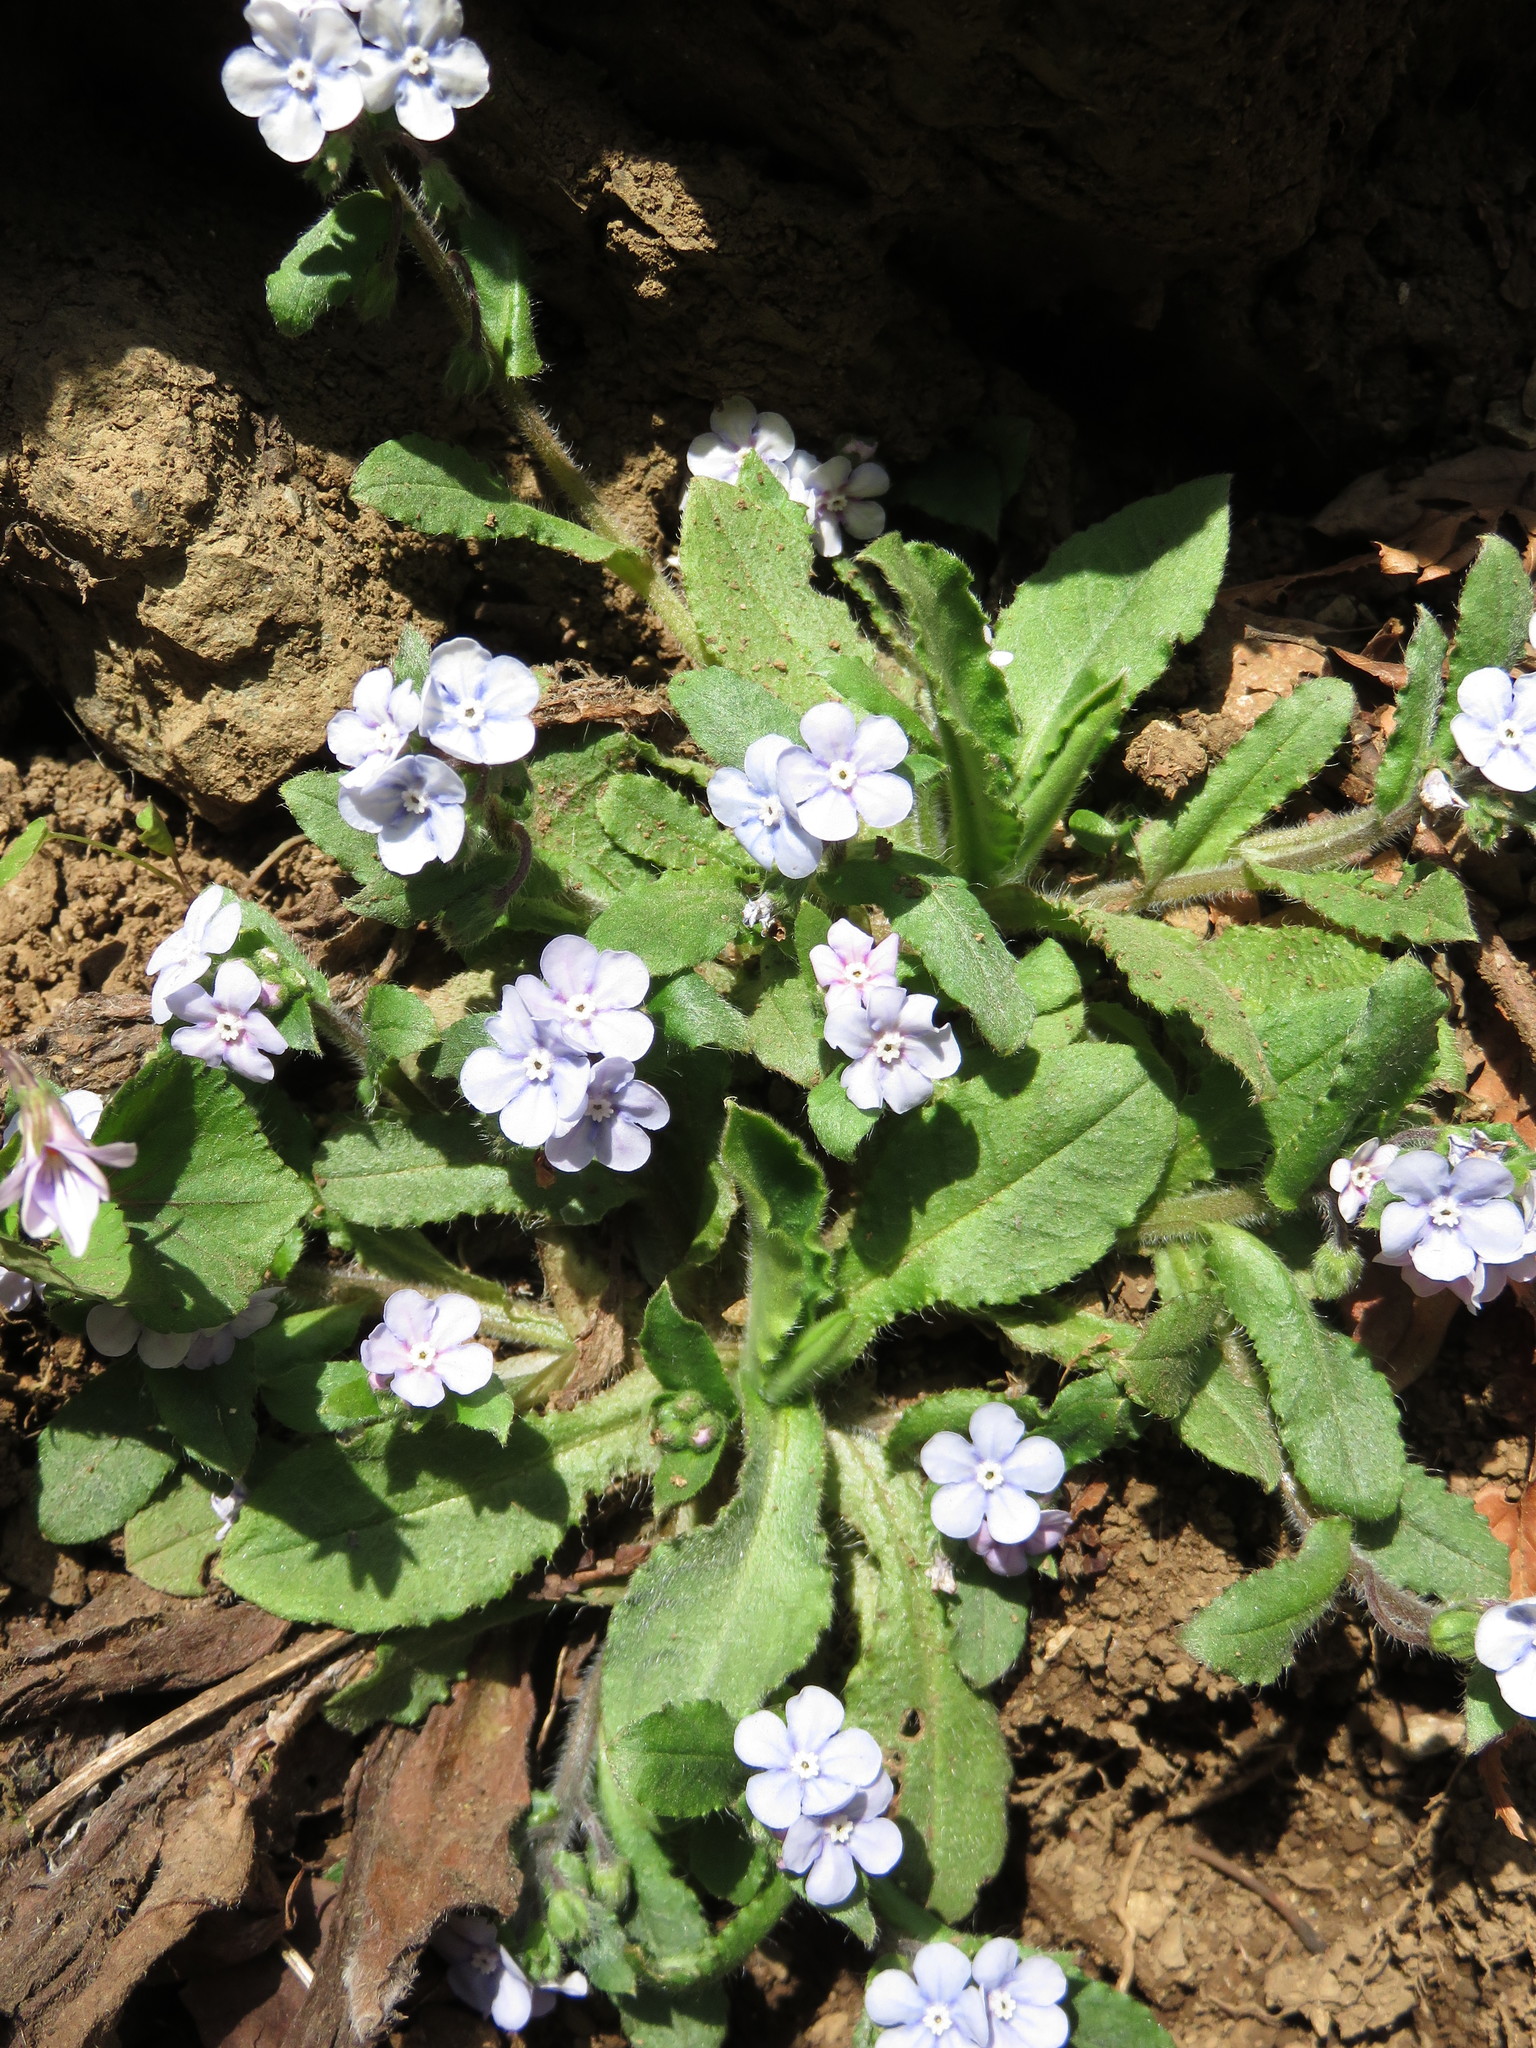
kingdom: Plantae
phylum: Tracheophyta
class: Magnoliopsida
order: Boraginales
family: Boraginaceae
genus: Nihon
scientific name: Nihon japonicum
